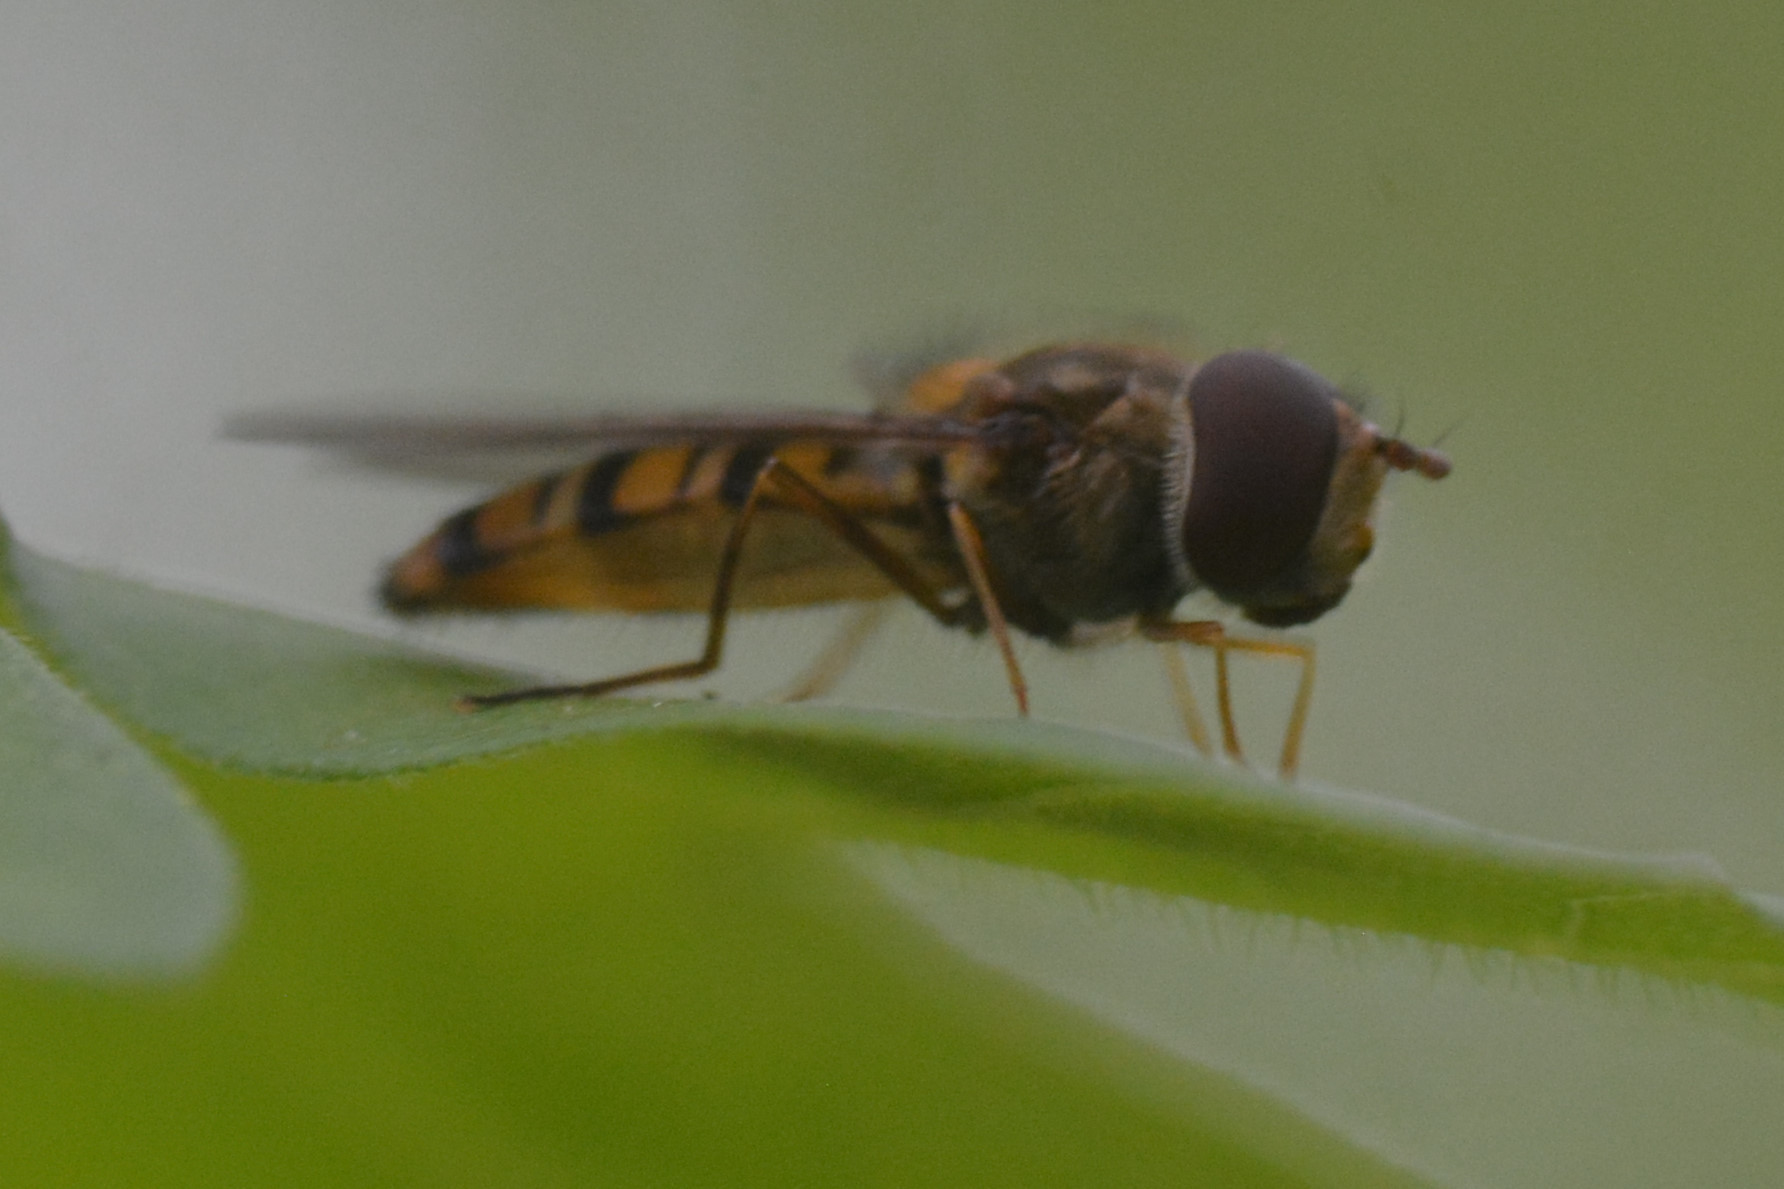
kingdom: Animalia
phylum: Arthropoda
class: Insecta
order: Diptera
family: Syrphidae
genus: Episyrphus
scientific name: Episyrphus balteatus
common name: Marmalade hoverfly
